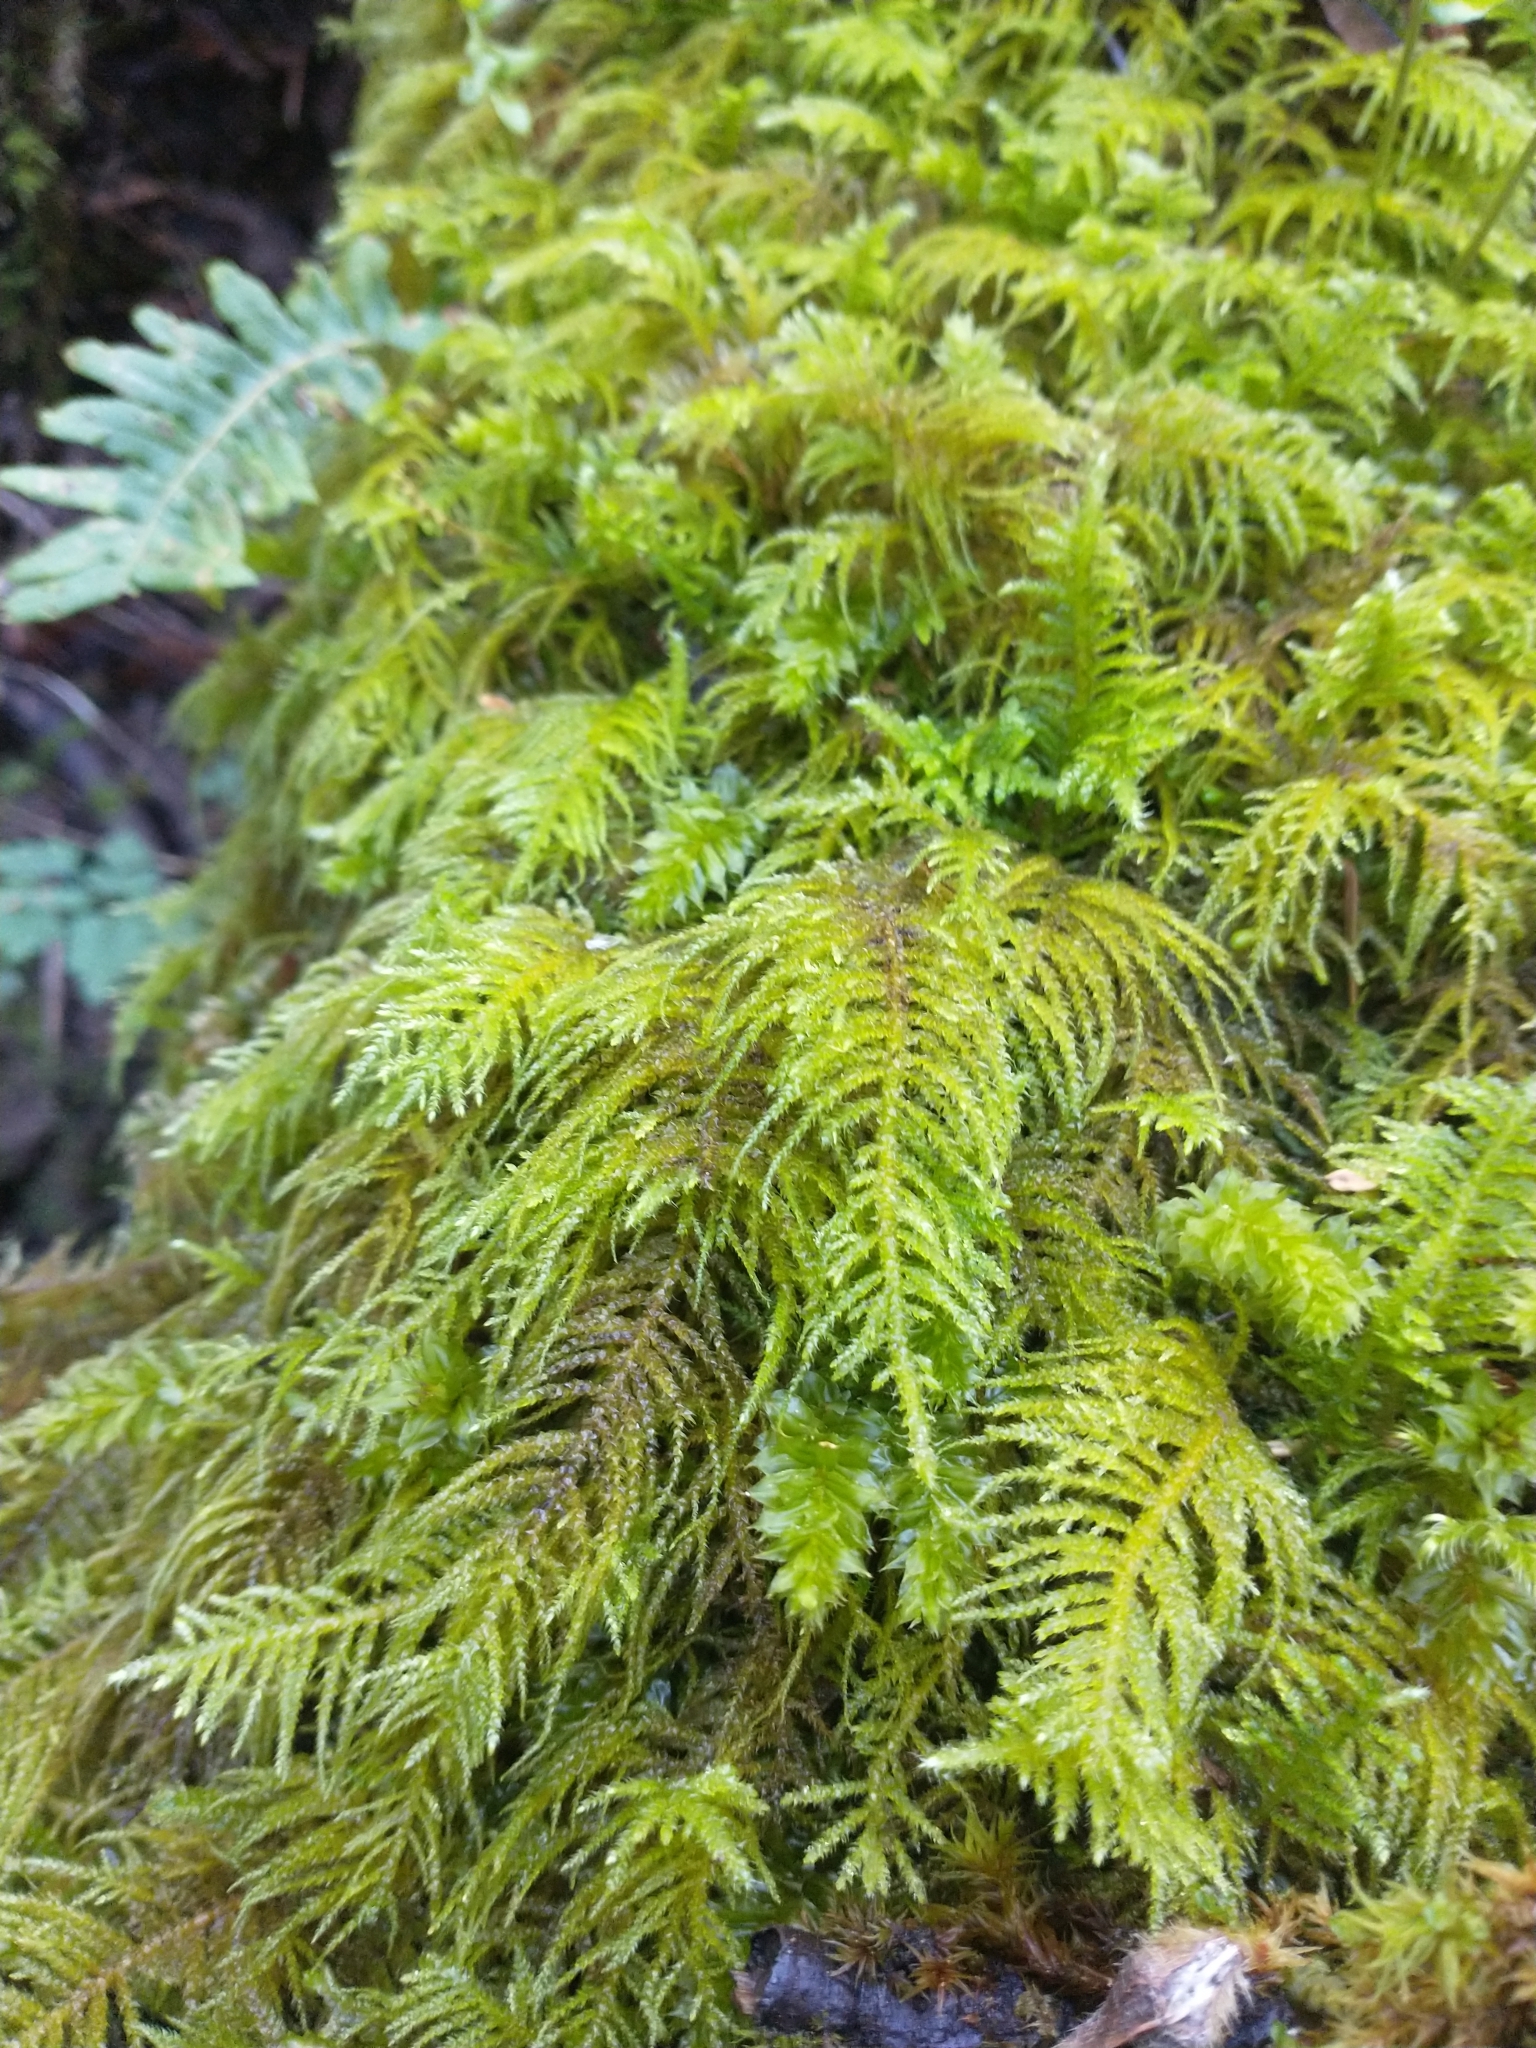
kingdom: Plantae
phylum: Bryophyta
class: Bryopsida
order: Hypnales
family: Brachytheciaceae
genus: Kindbergia
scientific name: Kindbergia oregana
